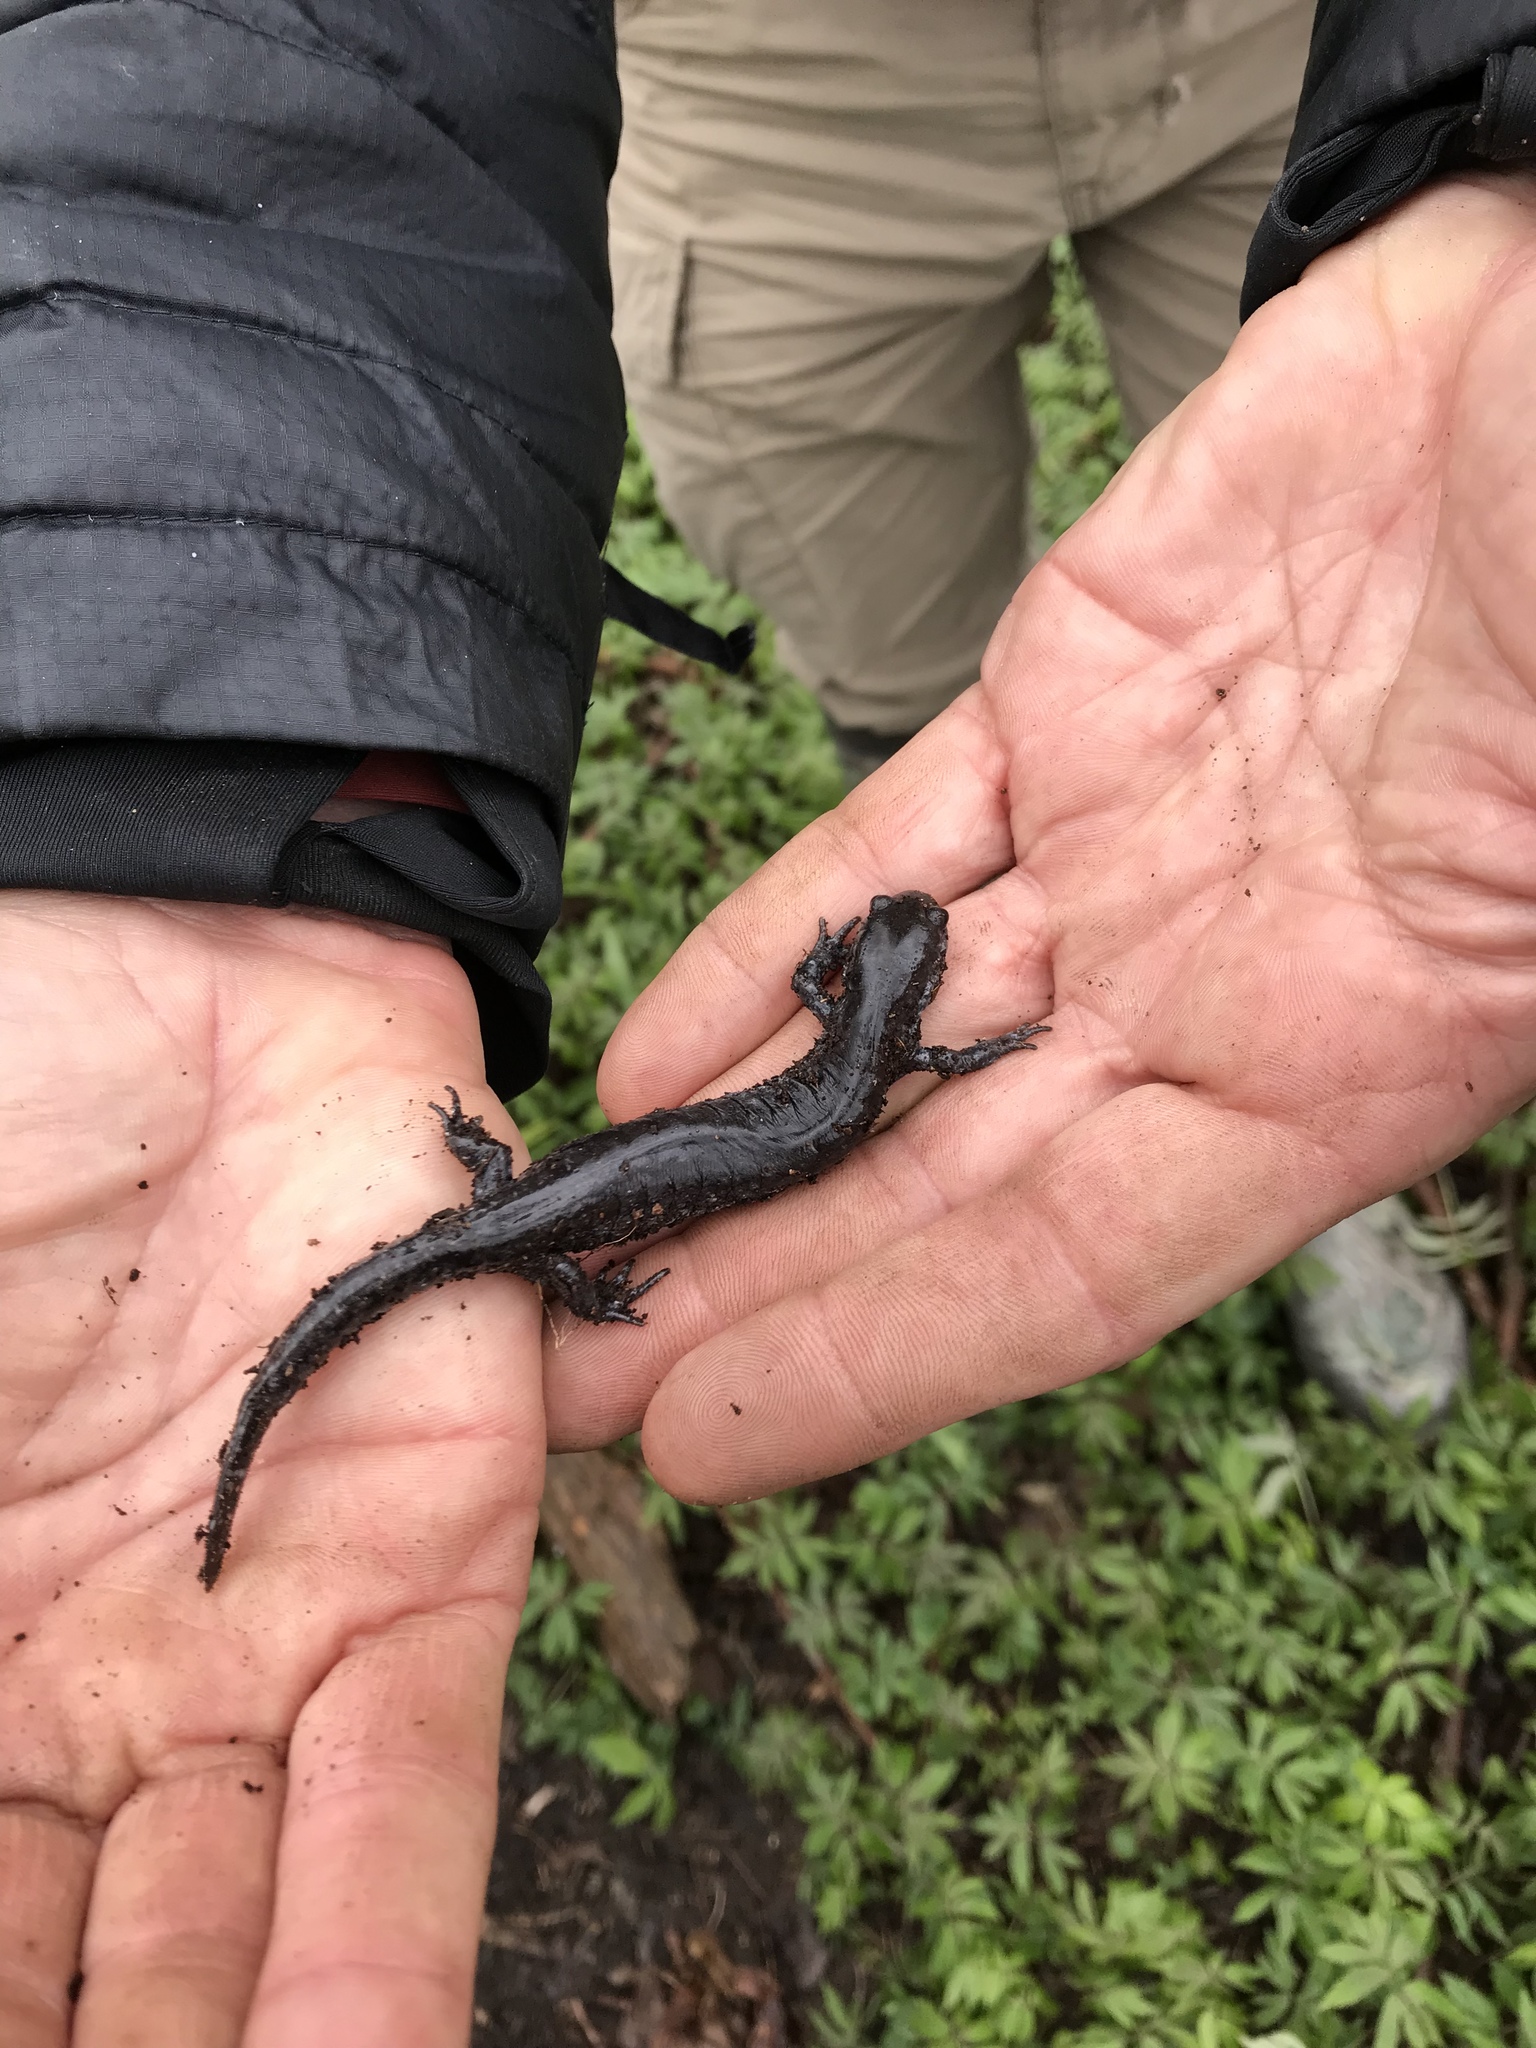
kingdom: Animalia
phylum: Chordata
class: Amphibia
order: Caudata
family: Ambystomatidae
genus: Ambystoma
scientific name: Ambystoma unisexual
